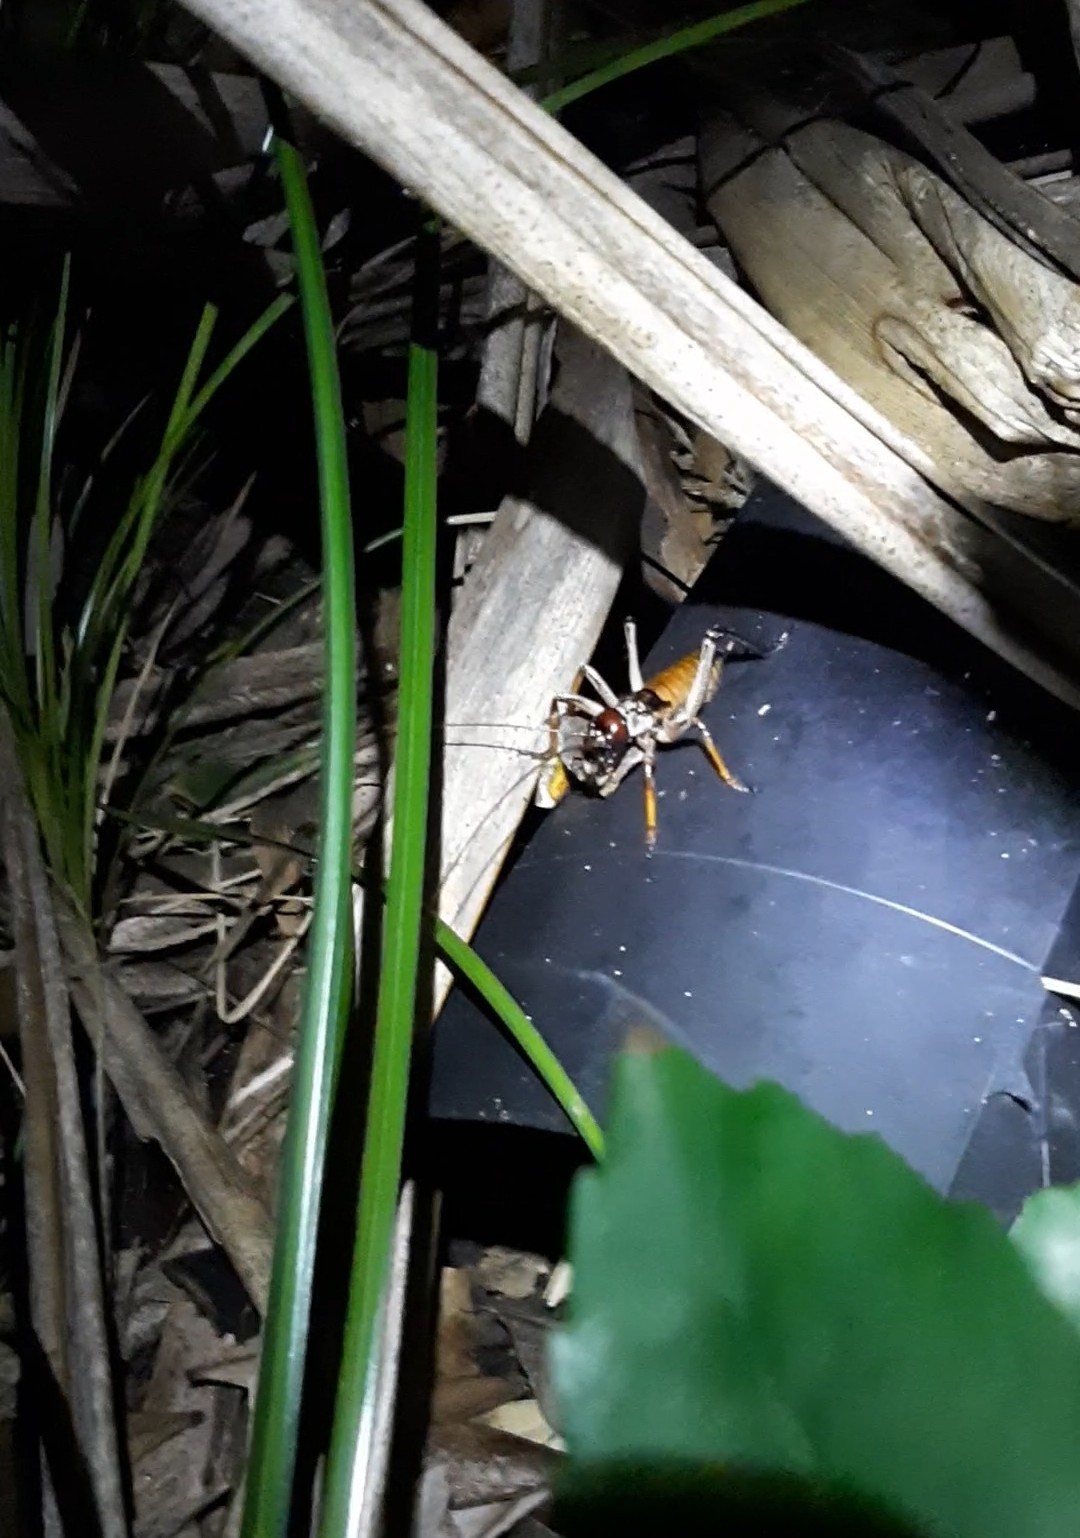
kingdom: Animalia
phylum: Arthropoda
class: Insecta
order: Orthoptera
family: Anostostomatidae
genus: Hemideina
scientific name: Hemideina thoracica
